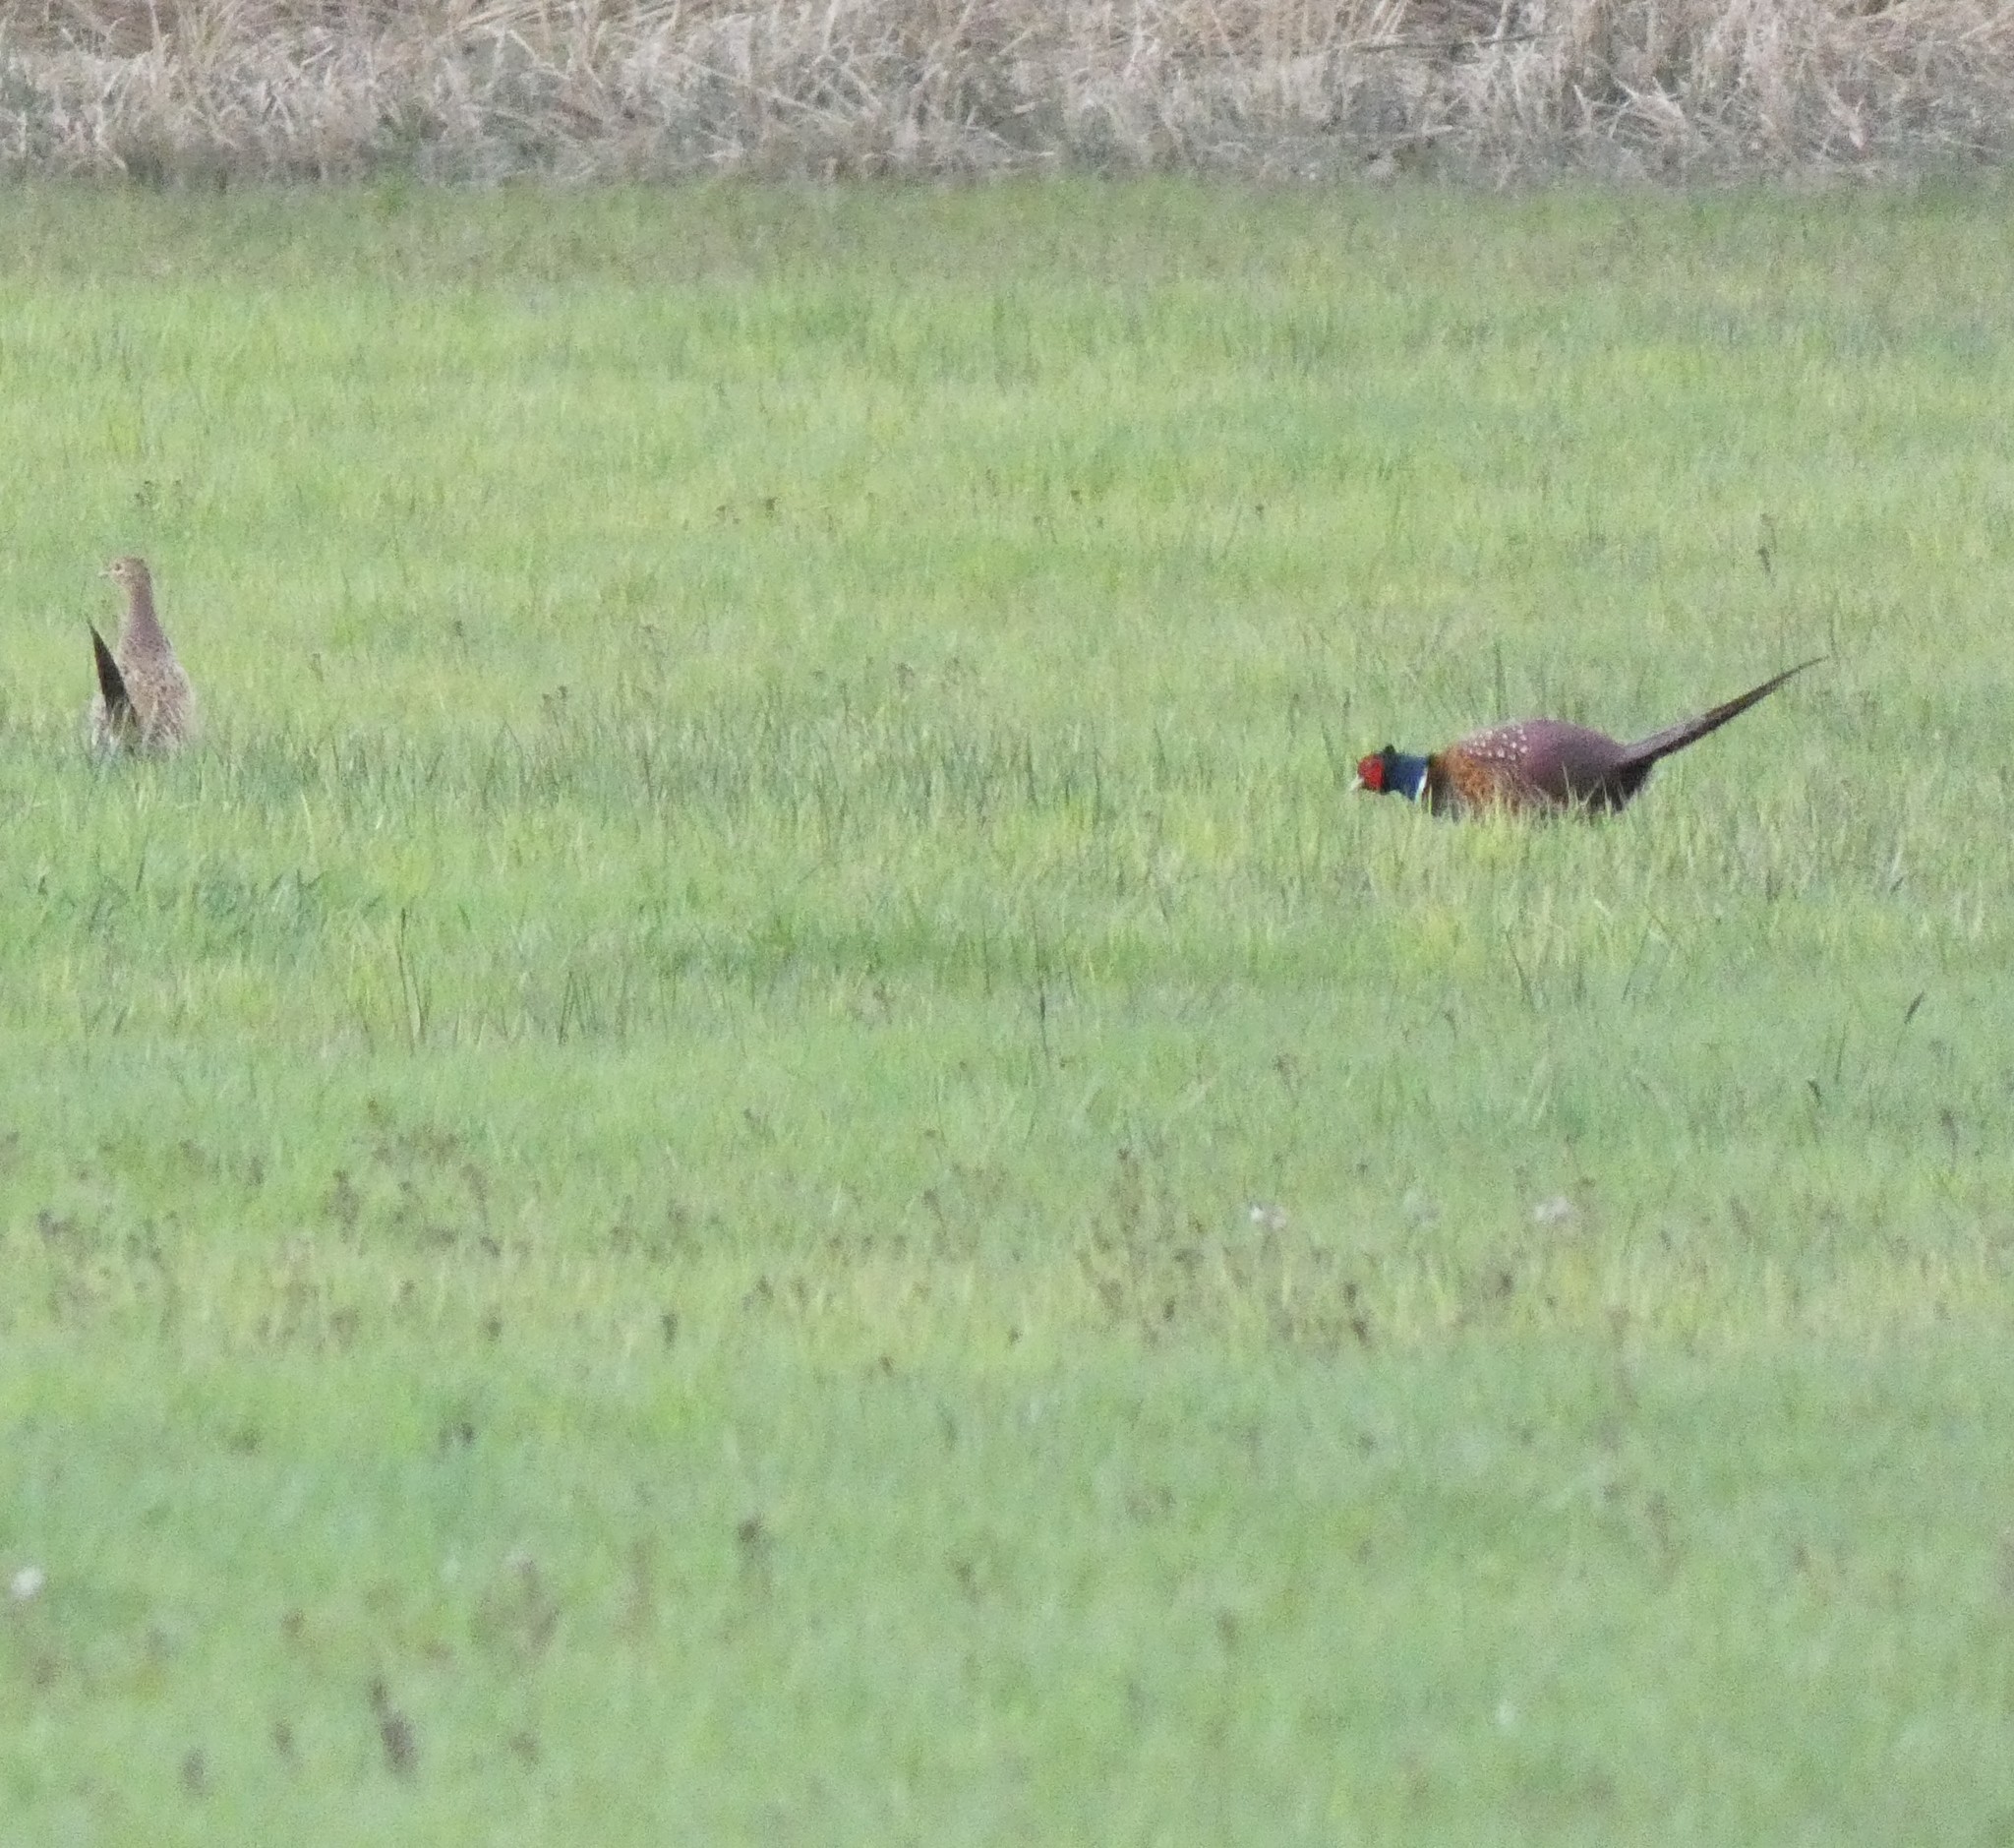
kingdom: Animalia
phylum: Chordata
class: Aves
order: Galliformes
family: Phasianidae
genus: Phasianus
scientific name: Phasianus colchicus
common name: Common pheasant
